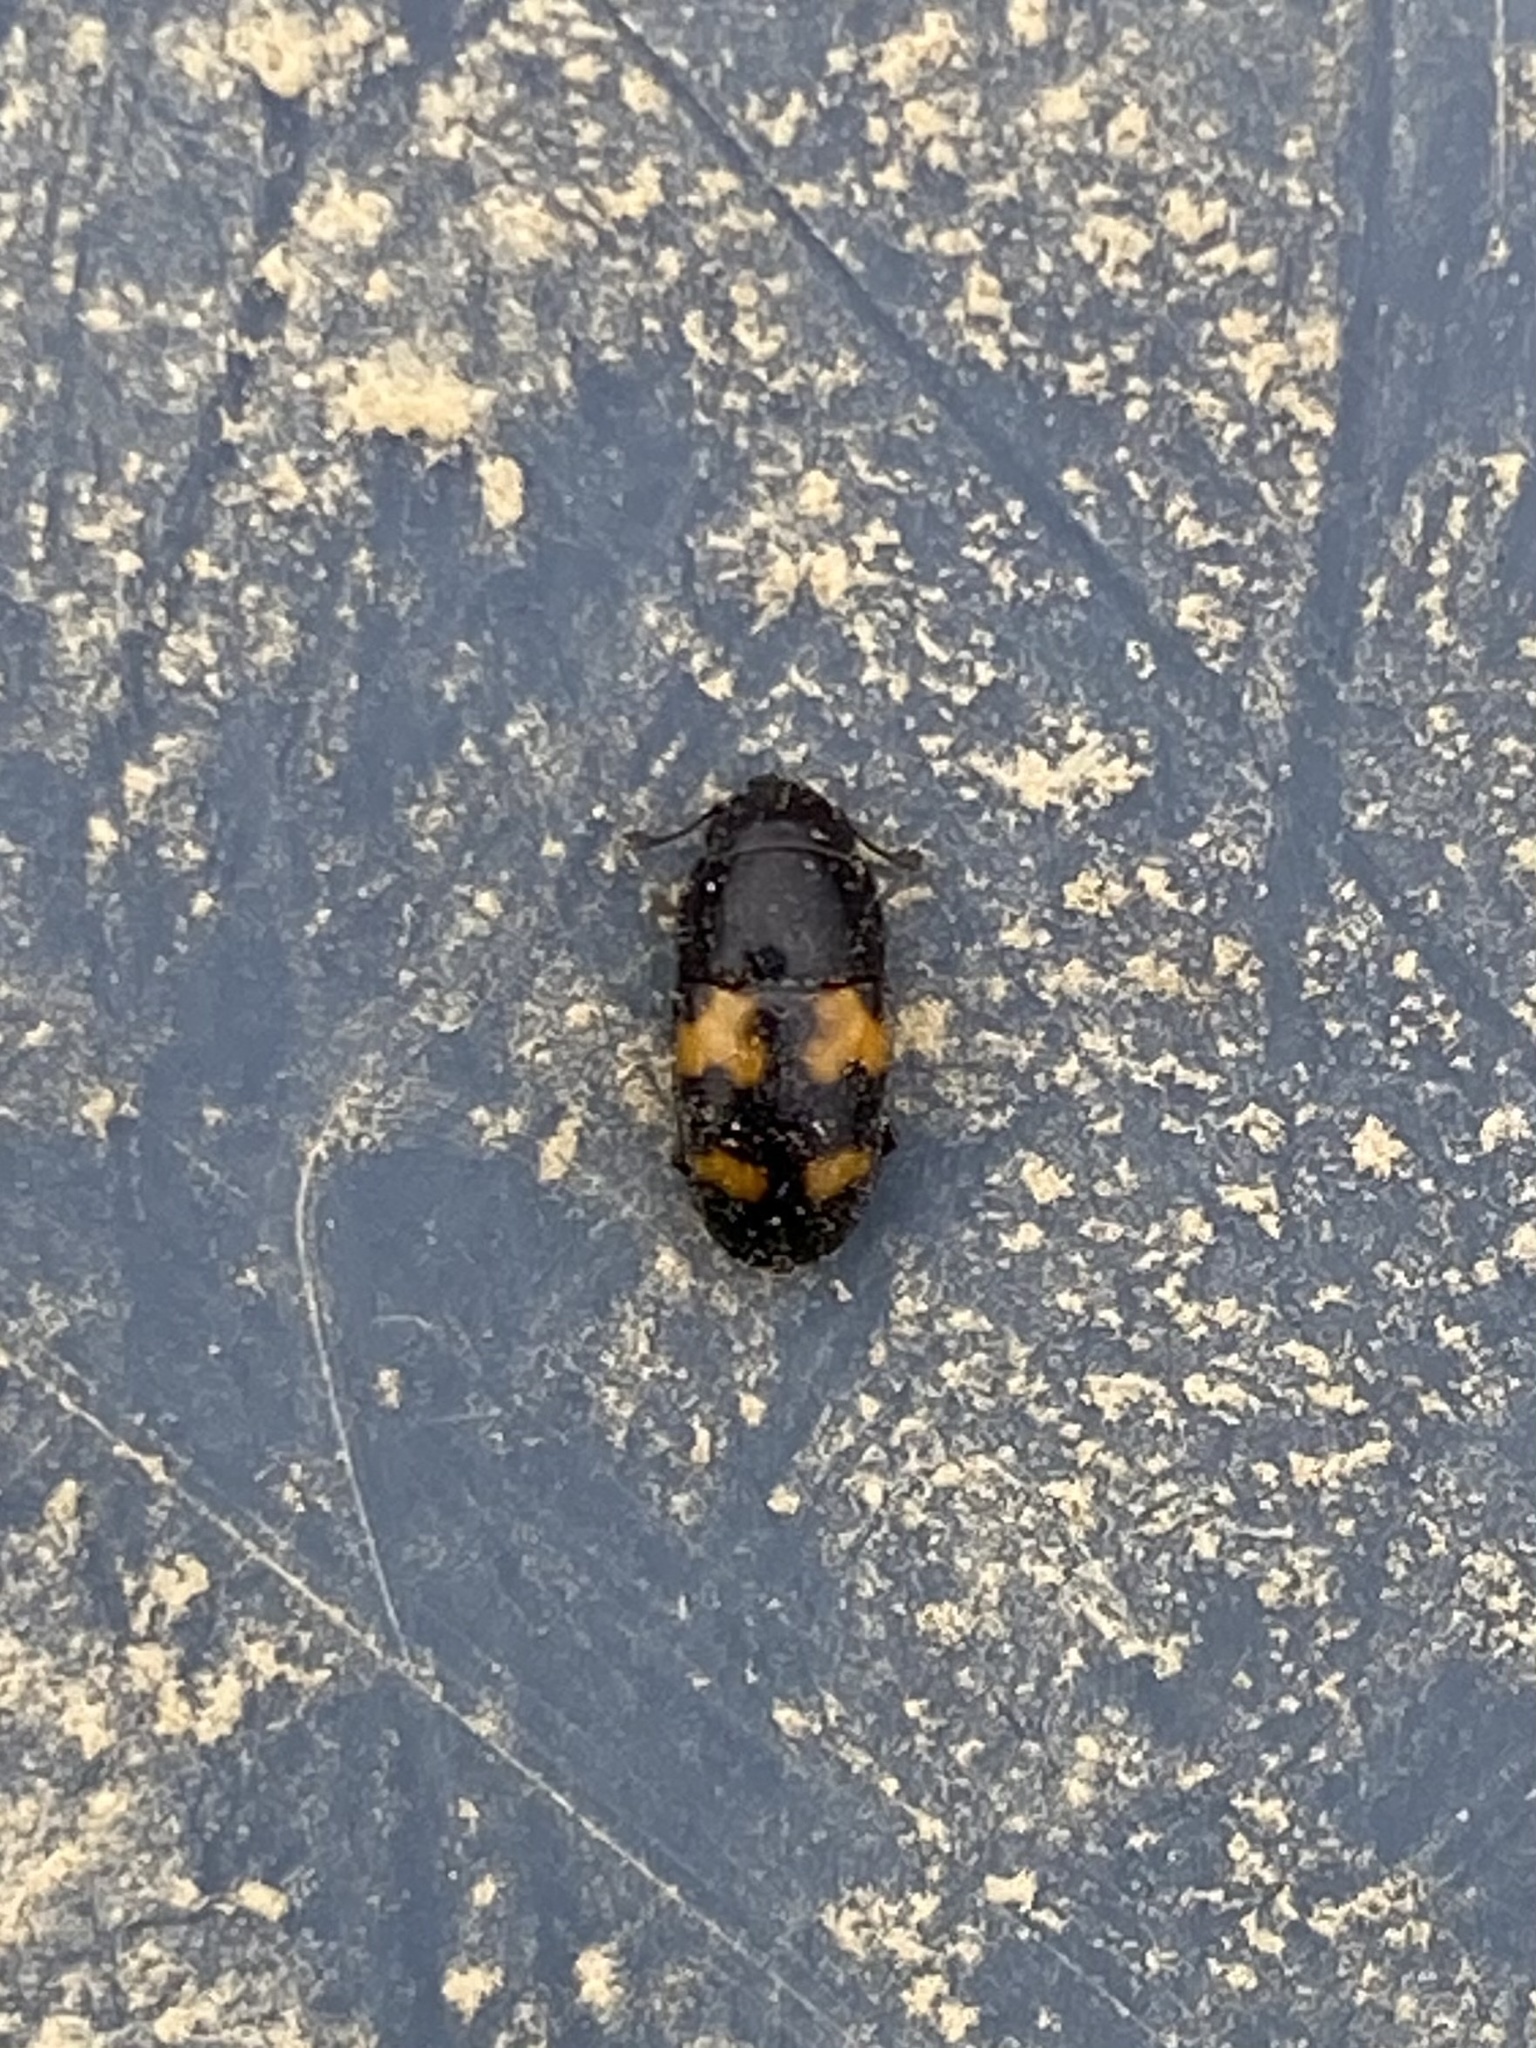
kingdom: Animalia
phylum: Arthropoda
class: Insecta
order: Coleoptera
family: Nitidulidae
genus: Glischrochilus
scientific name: Glischrochilus fasciatus
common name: Picnic beetle
